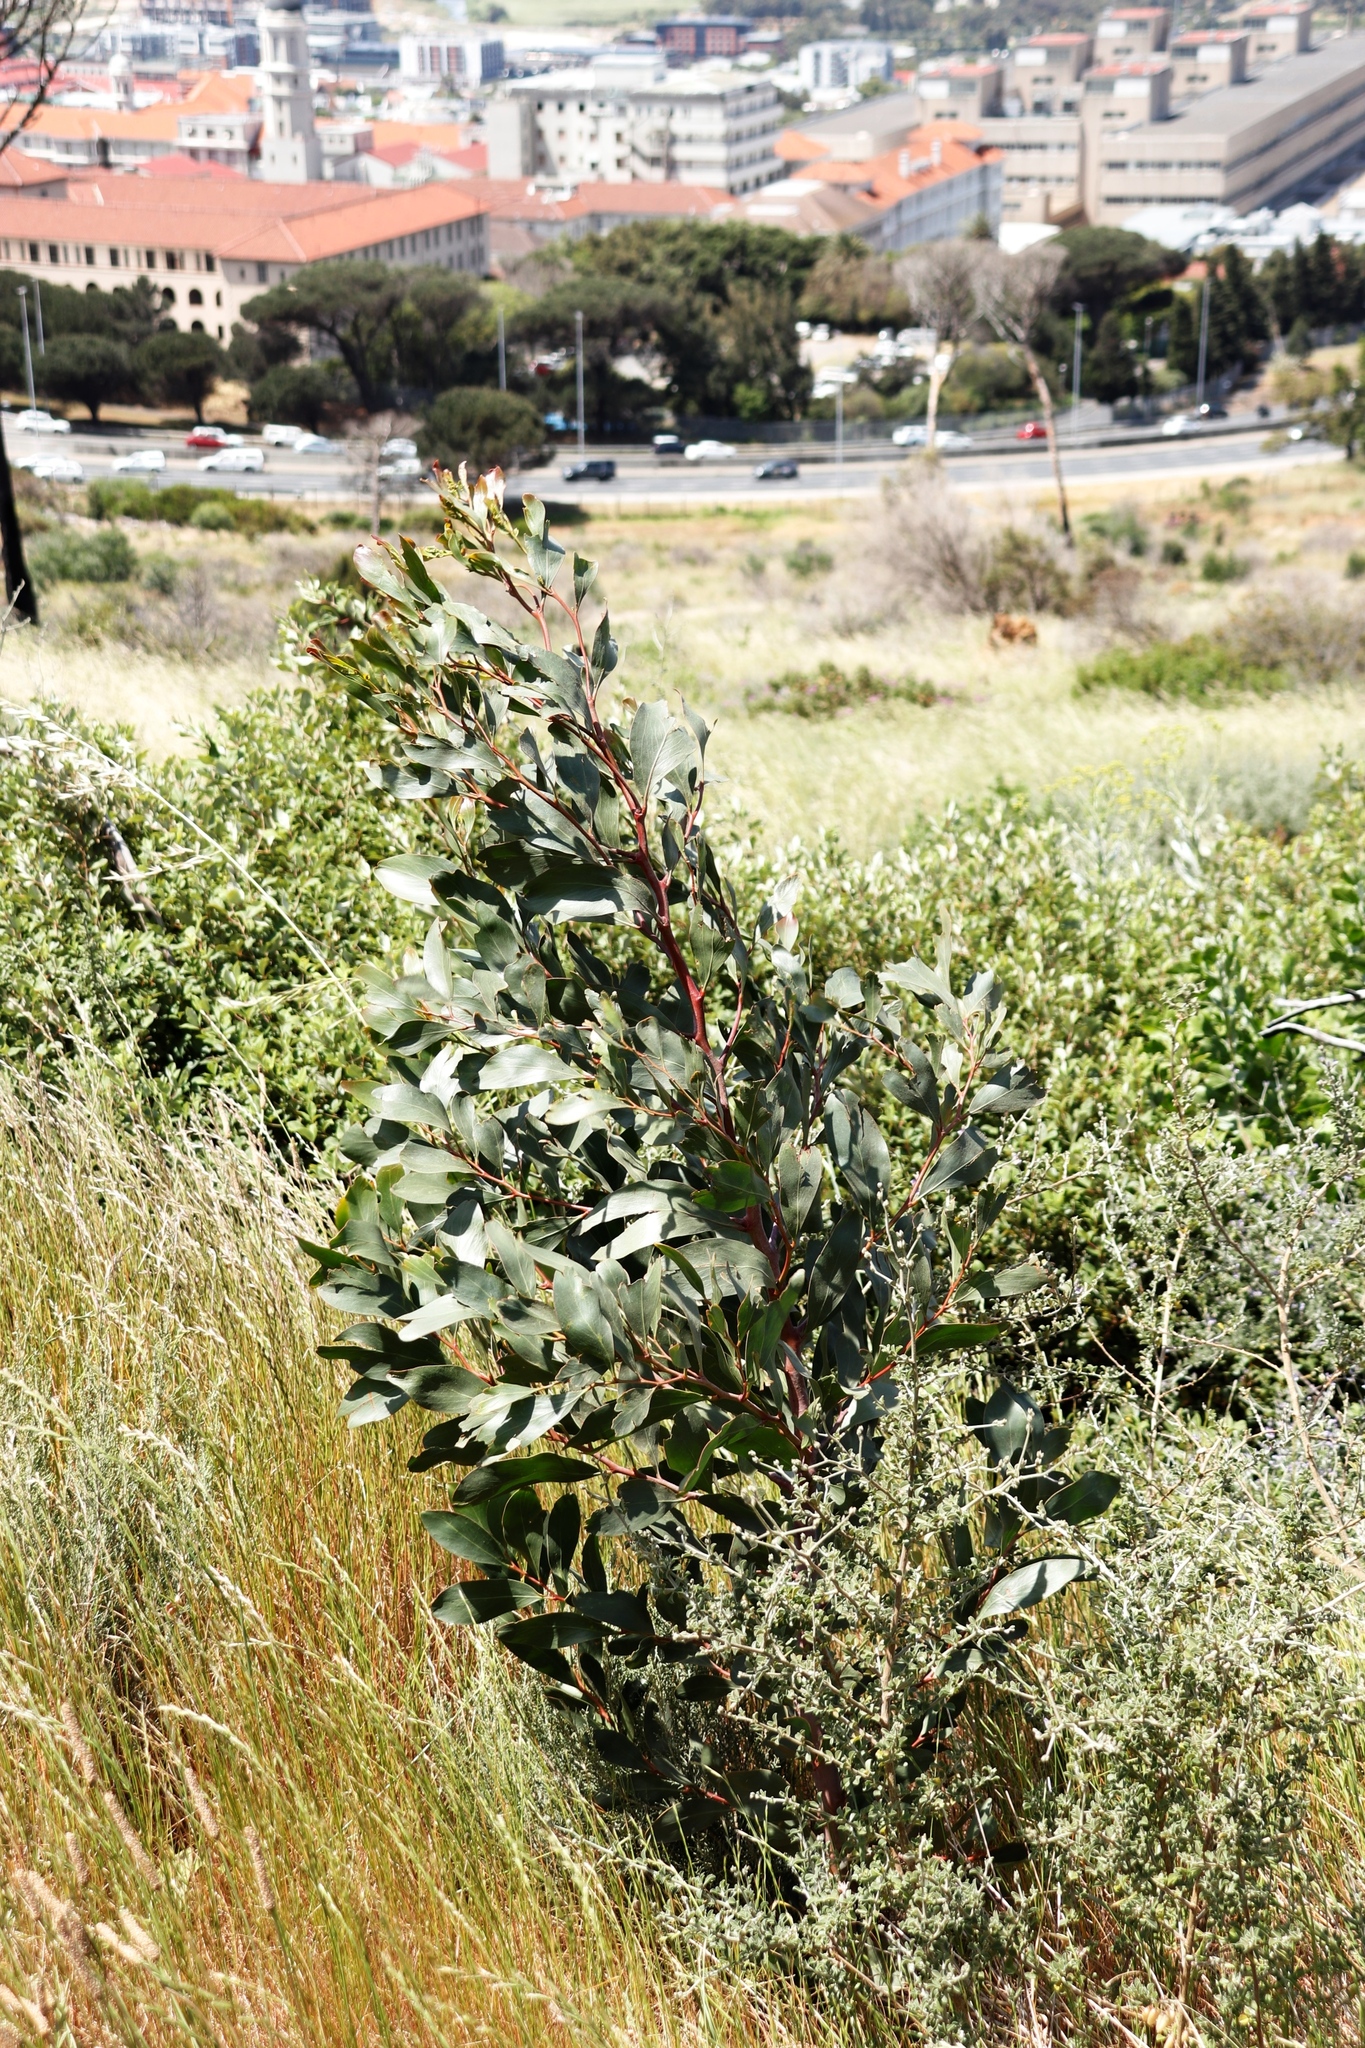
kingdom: Plantae
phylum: Tracheophyta
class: Magnoliopsida
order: Fabales
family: Fabaceae
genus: Acacia
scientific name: Acacia pycnantha
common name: Golden wattle
